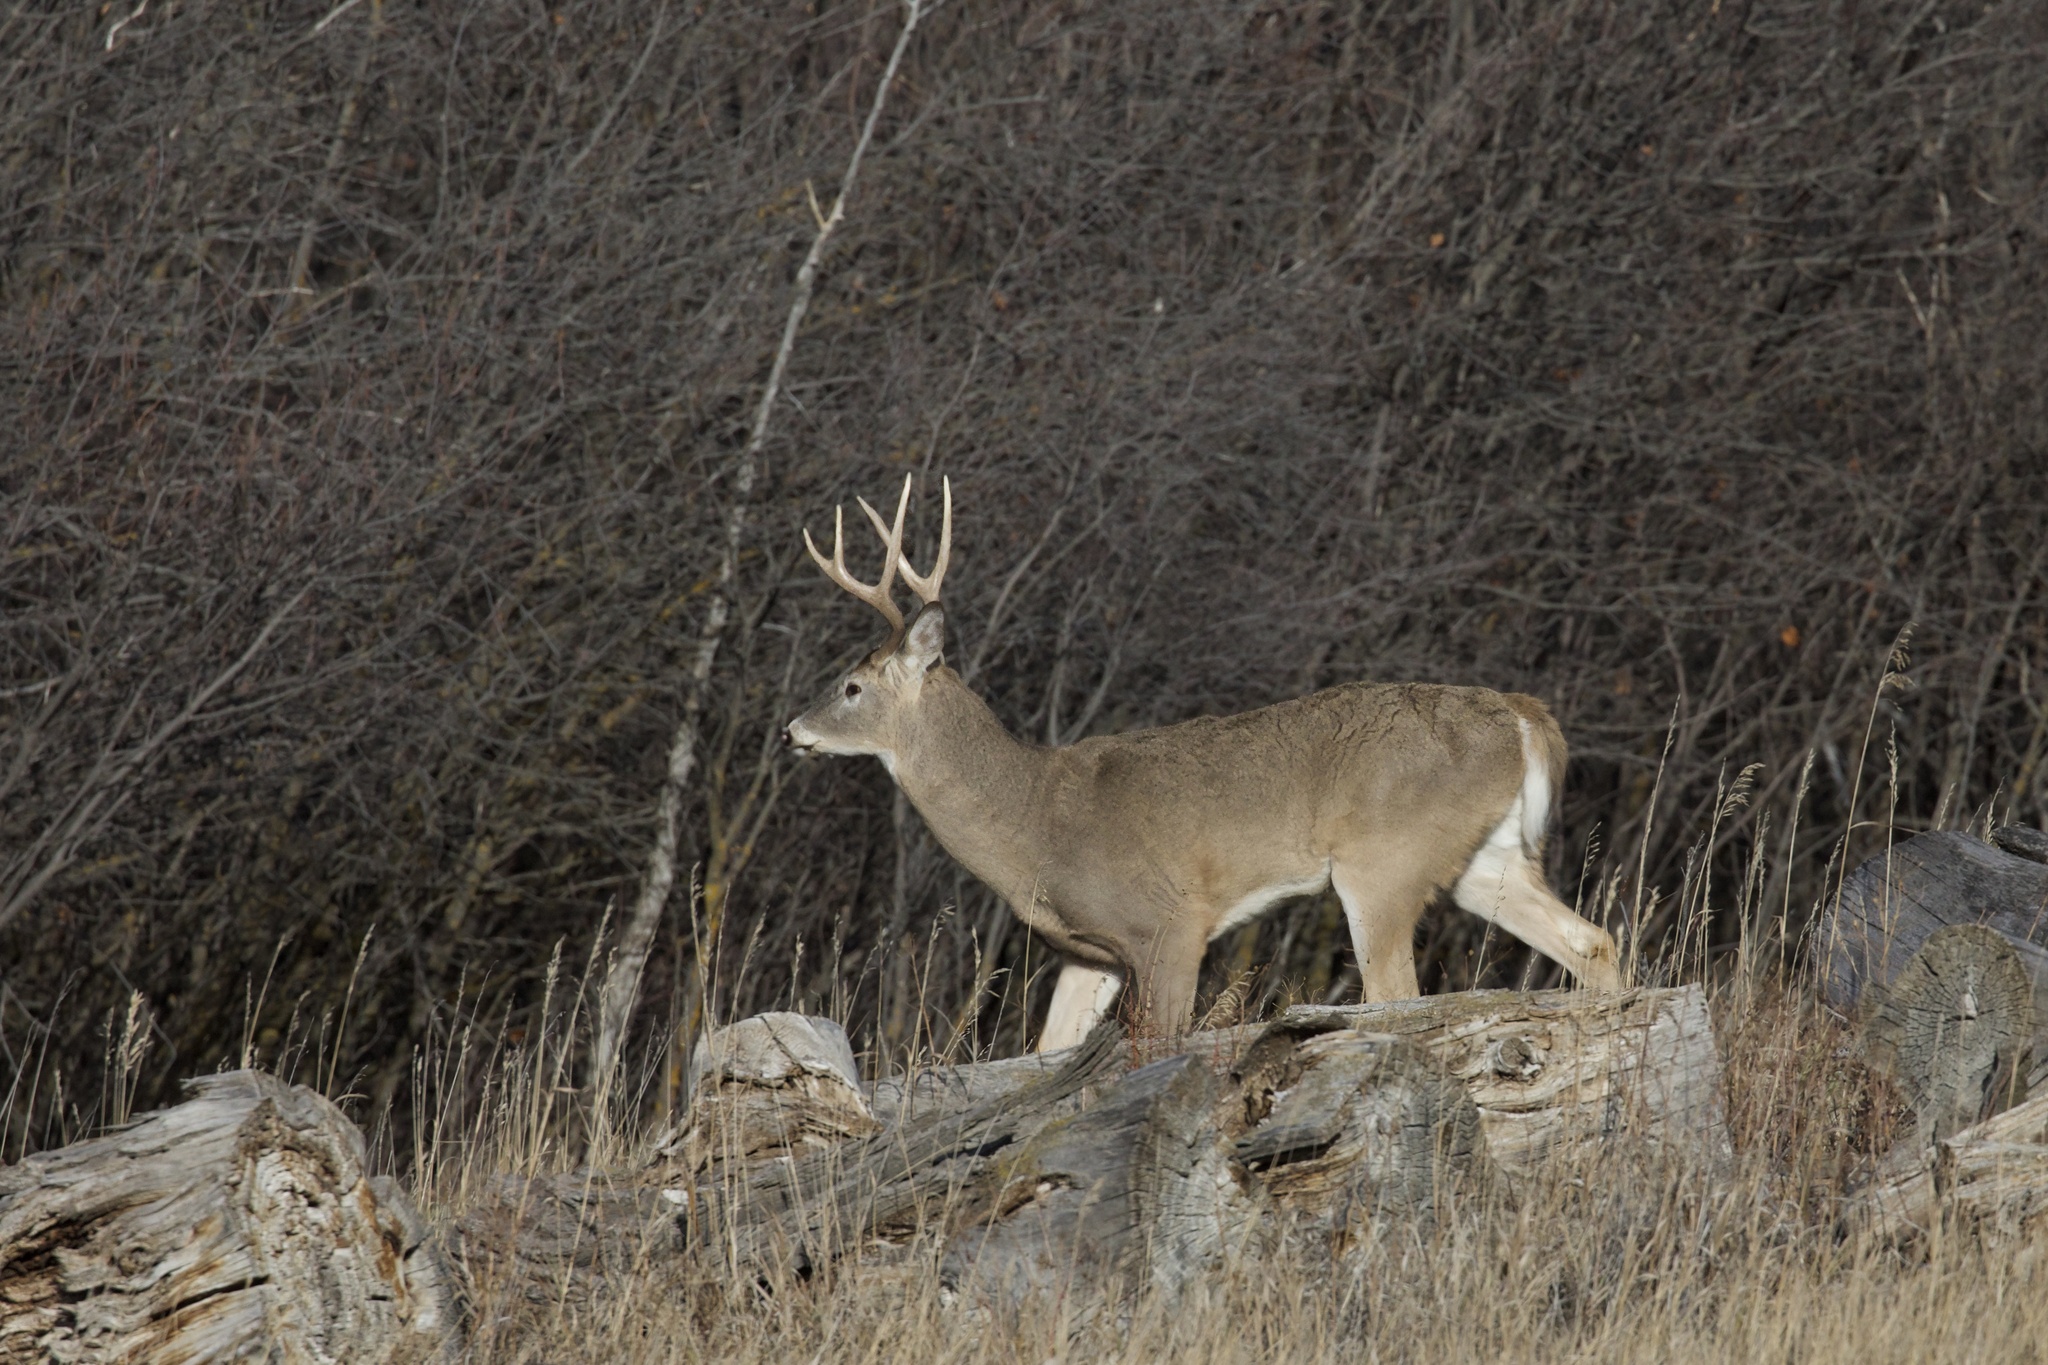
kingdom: Animalia
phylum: Chordata
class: Mammalia
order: Artiodactyla
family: Cervidae
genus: Odocoileus
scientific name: Odocoileus virginianus
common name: White-tailed deer
